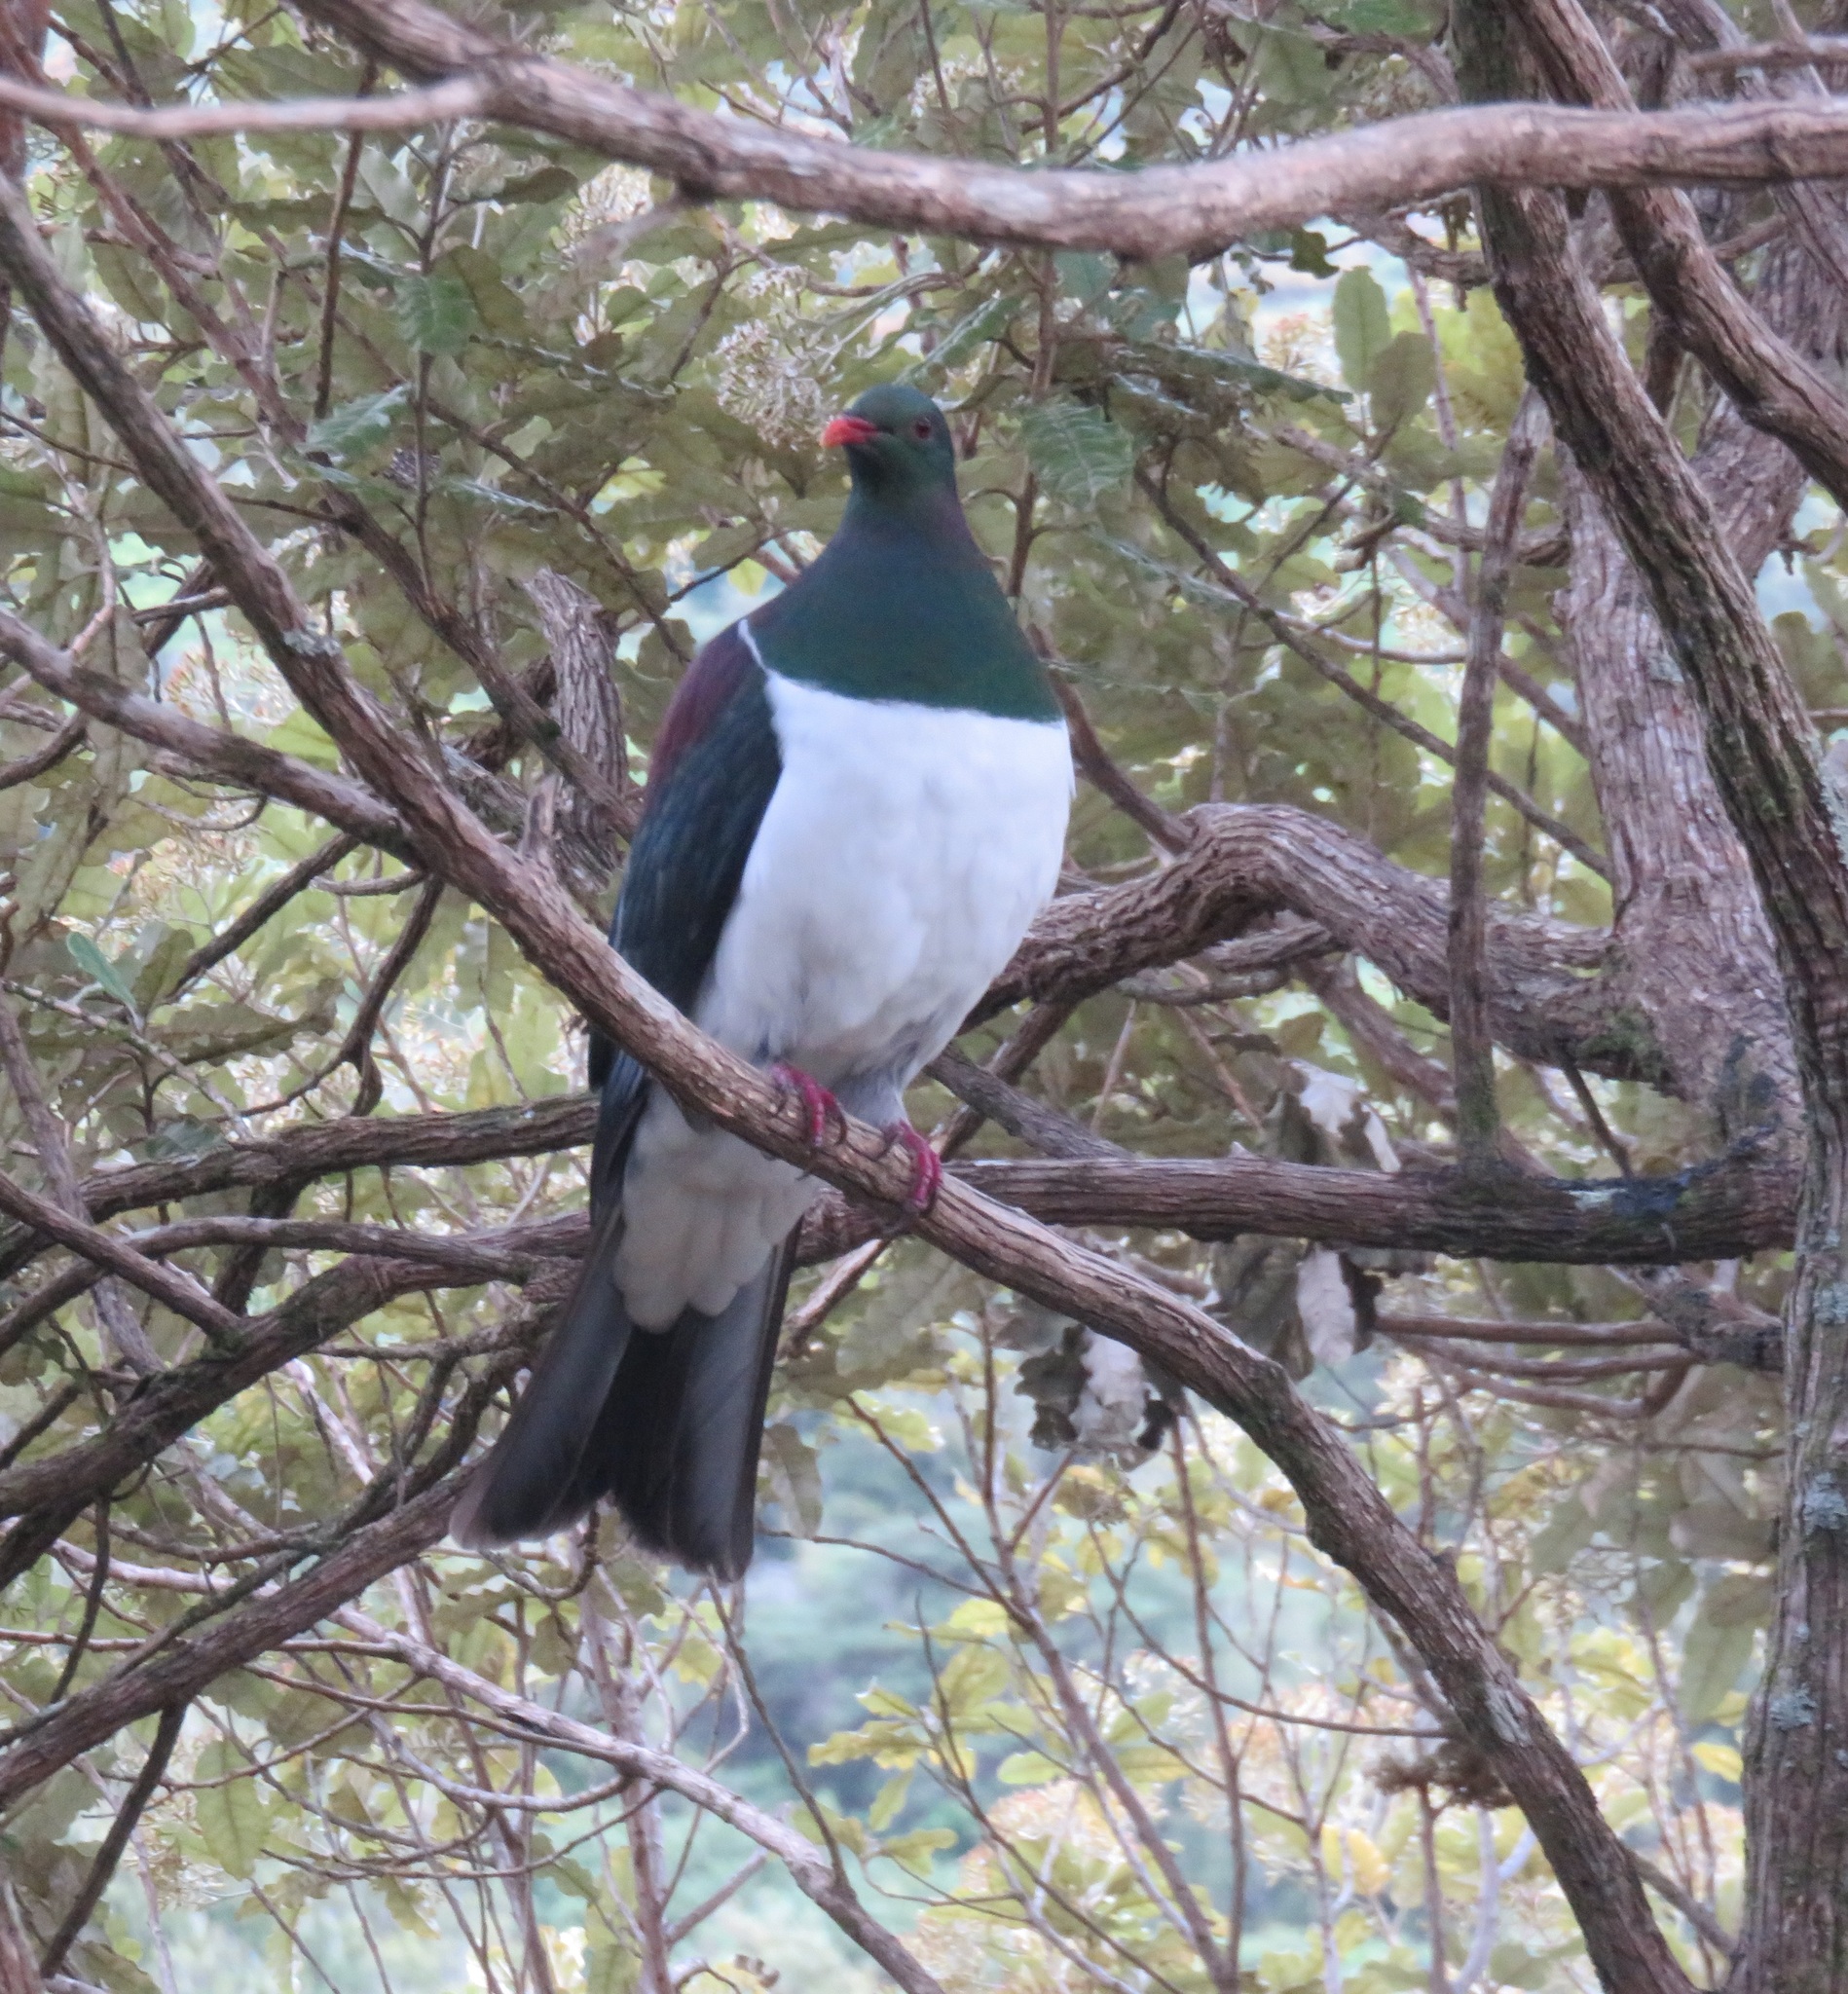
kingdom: Animalia
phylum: Chordata
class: Aves
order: Columbiformes
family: Columbidae
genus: Hemiphaga
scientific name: Hemiphaga novaeseelandiae
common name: New zealand pigeon
